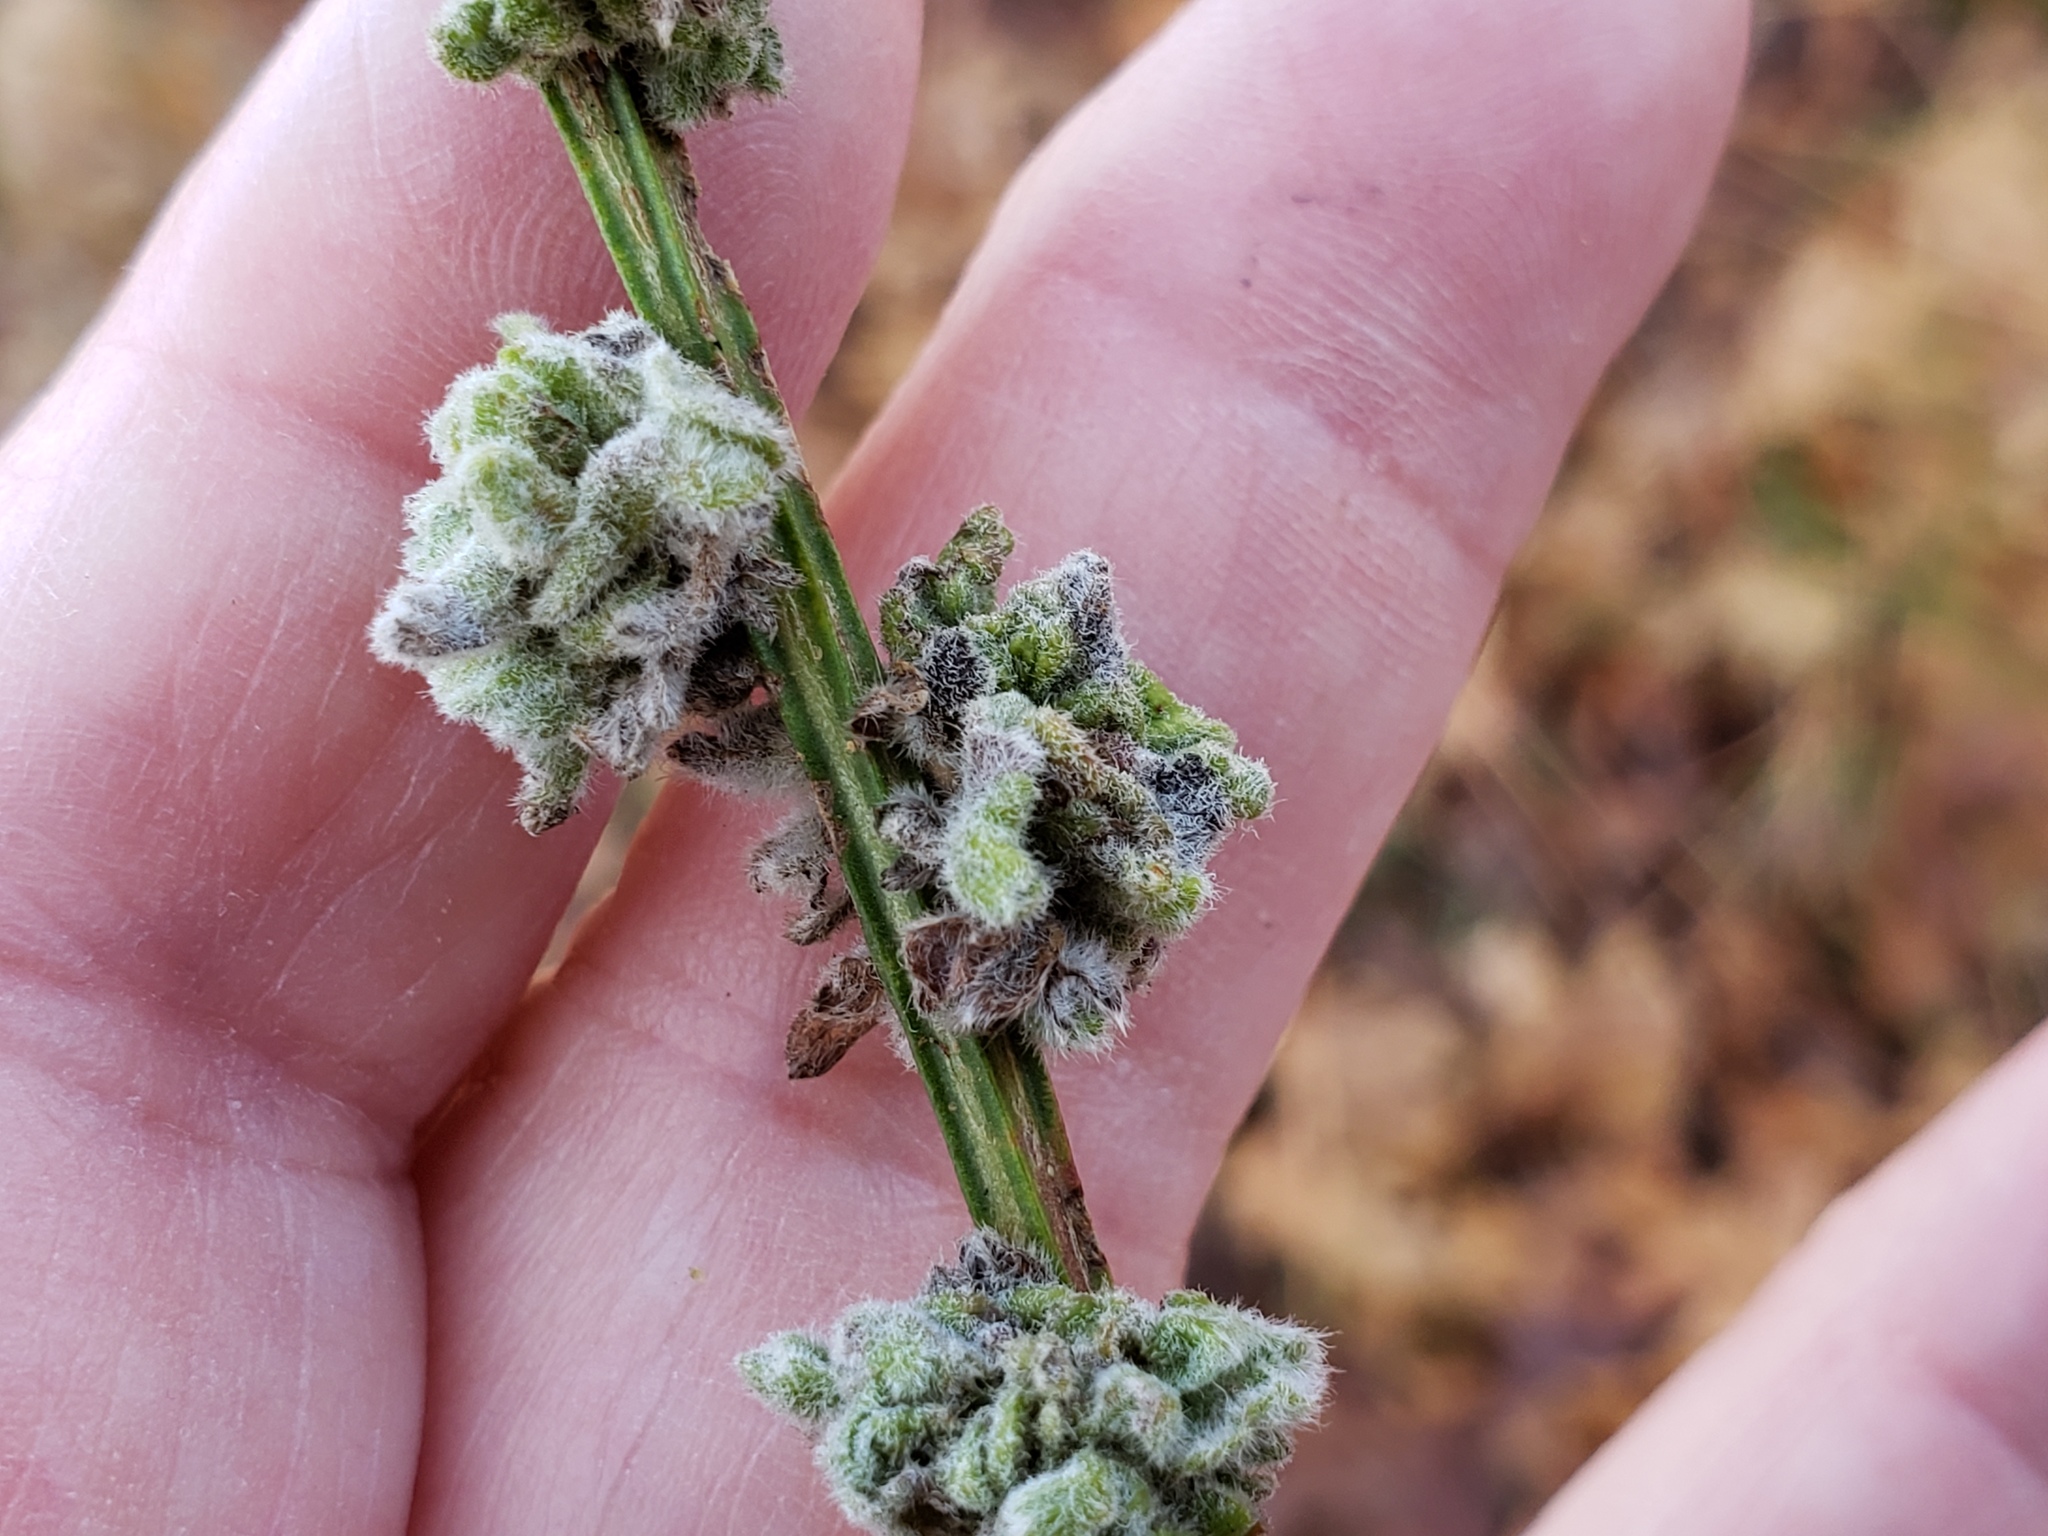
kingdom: Animalia
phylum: Arthropoda
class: Arachnida
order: Trombidiformes
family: Eriophyidae
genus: Aceria
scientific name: Aceria genistae
